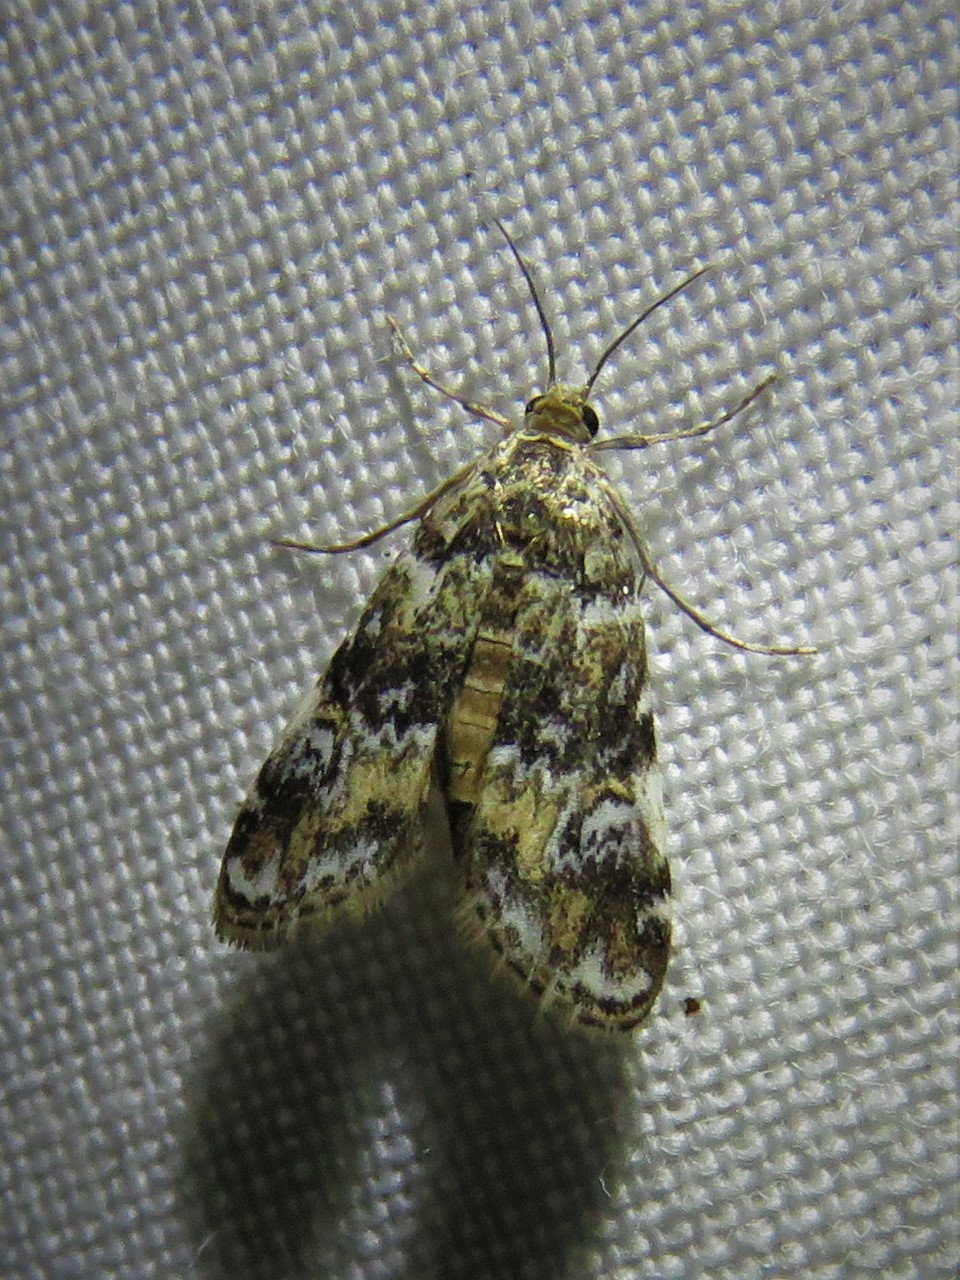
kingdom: Animalia
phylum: Arthropoda
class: Insecta
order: Lepidoptera
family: Crambidae
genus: Elophila
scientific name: Elophila obliteralis
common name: Waterlily leafcutter moth
